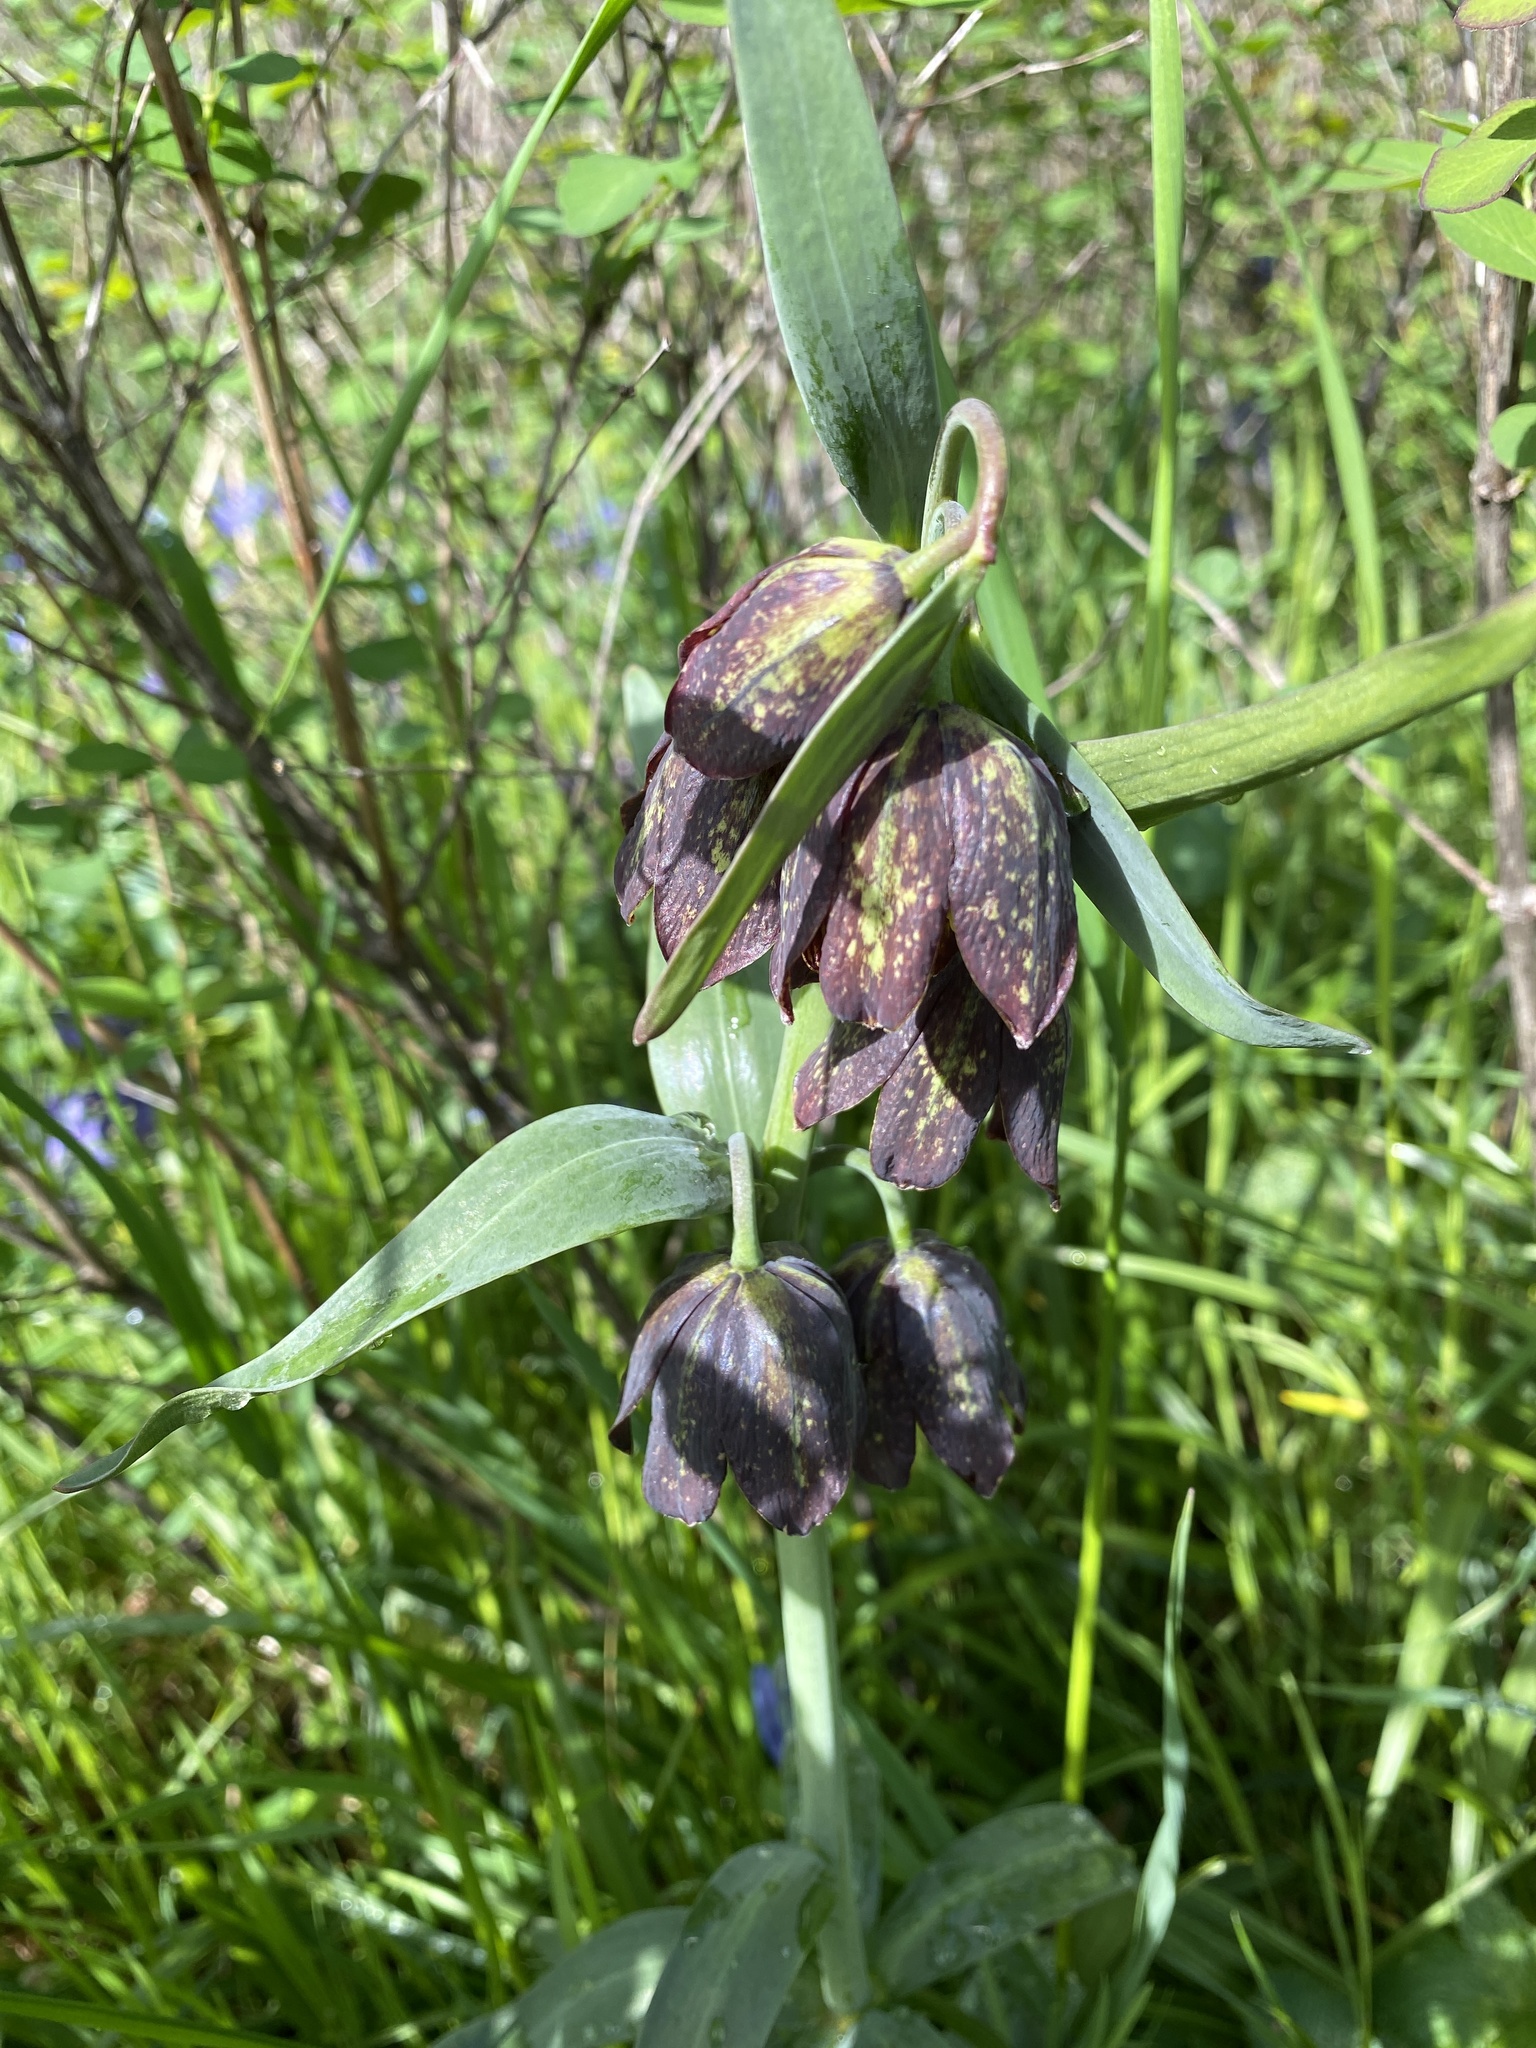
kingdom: Plantae
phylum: Tracheophyta
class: Liliopsida
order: Liliales
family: Liliaceae
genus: Fritillaria
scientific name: Fritillaria affinis
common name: Ojai fritillary
